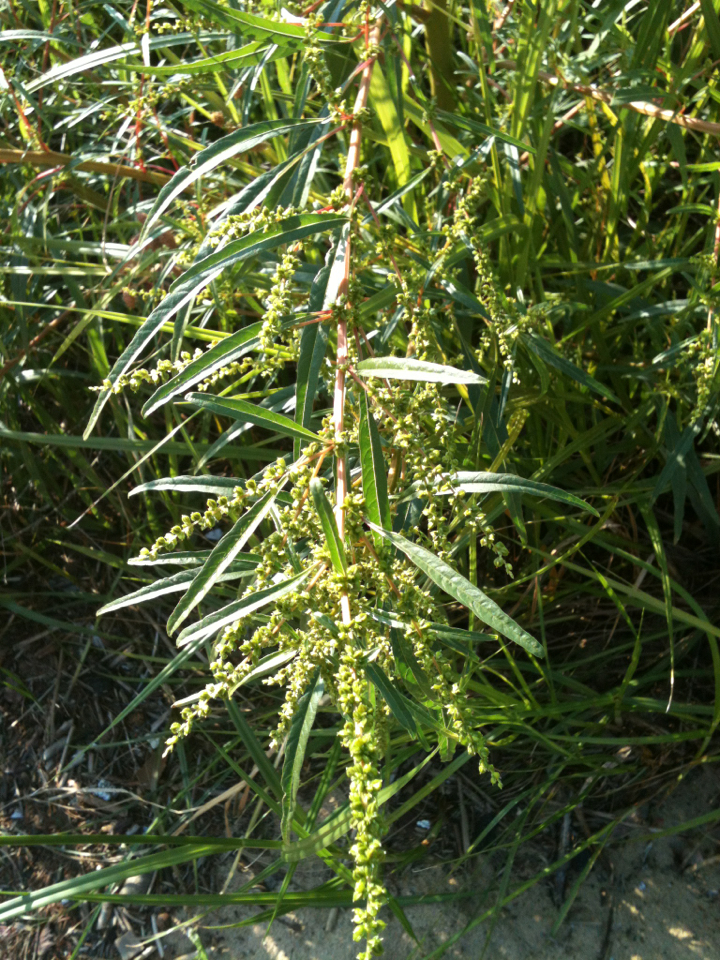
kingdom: Plantae
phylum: Tracheophyta
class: Magnoliopsida
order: Caryophyllales
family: Amaranthaceae
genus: Amaranthus
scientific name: Amaranthus cannabinus
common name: Salt-marsh water-hemp
